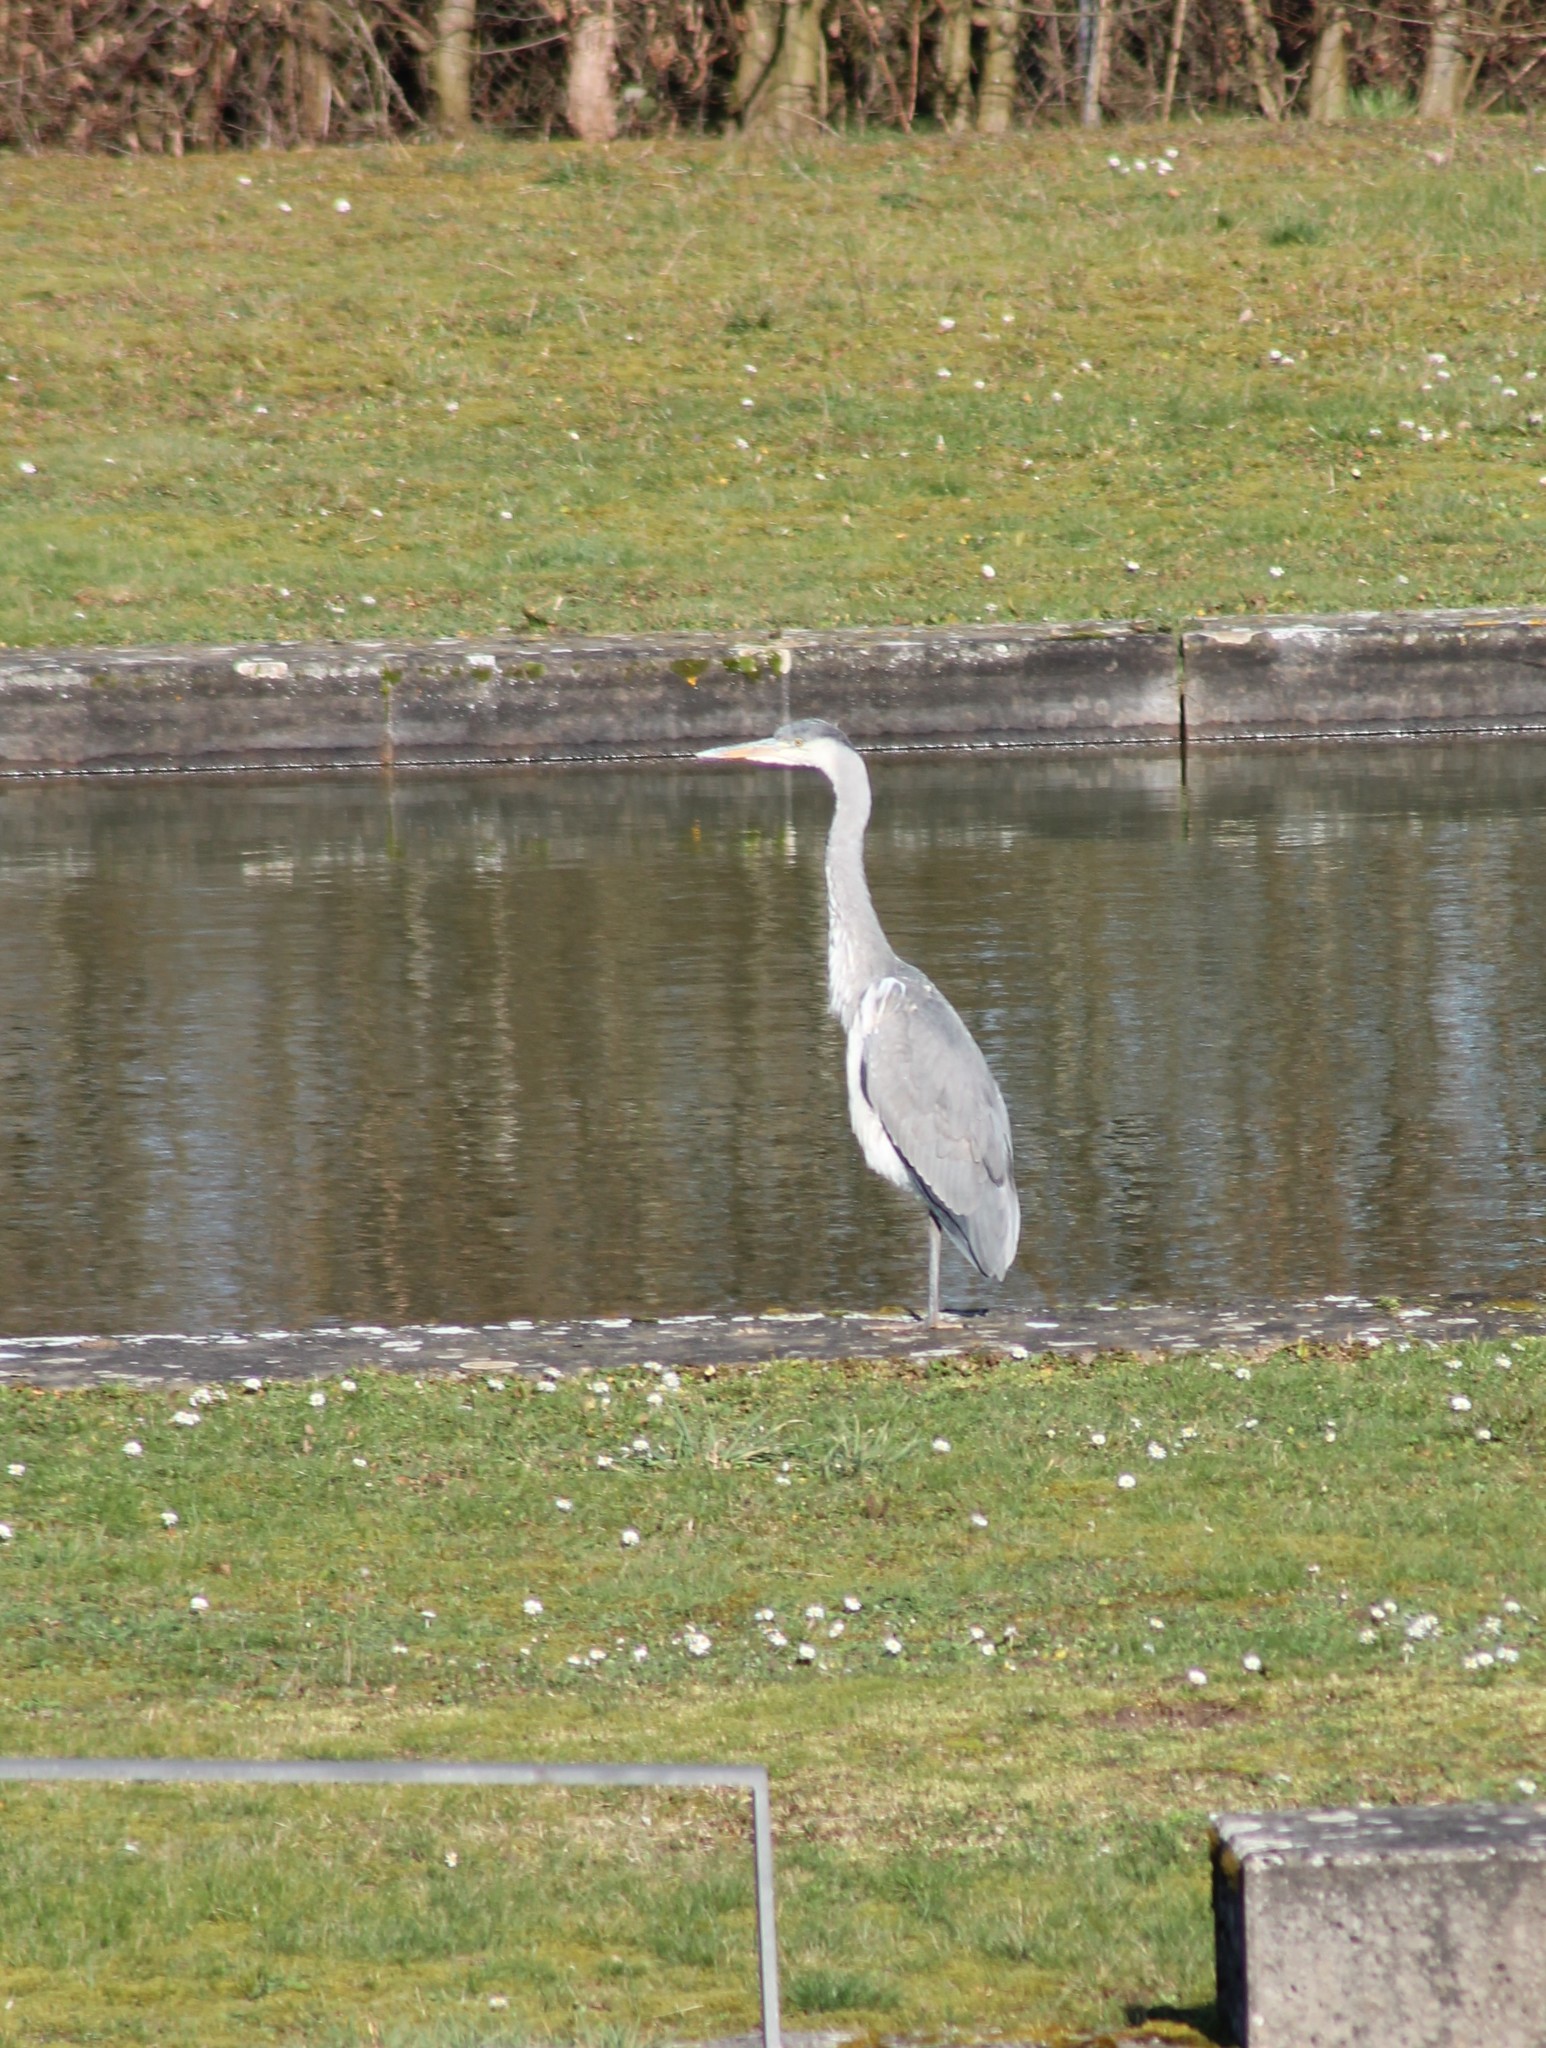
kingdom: Animalia
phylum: Chordata
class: Aves
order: Pelecaniformes
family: Ardeidae
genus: Ardea
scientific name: Ardea cinerea
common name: Grey heron
